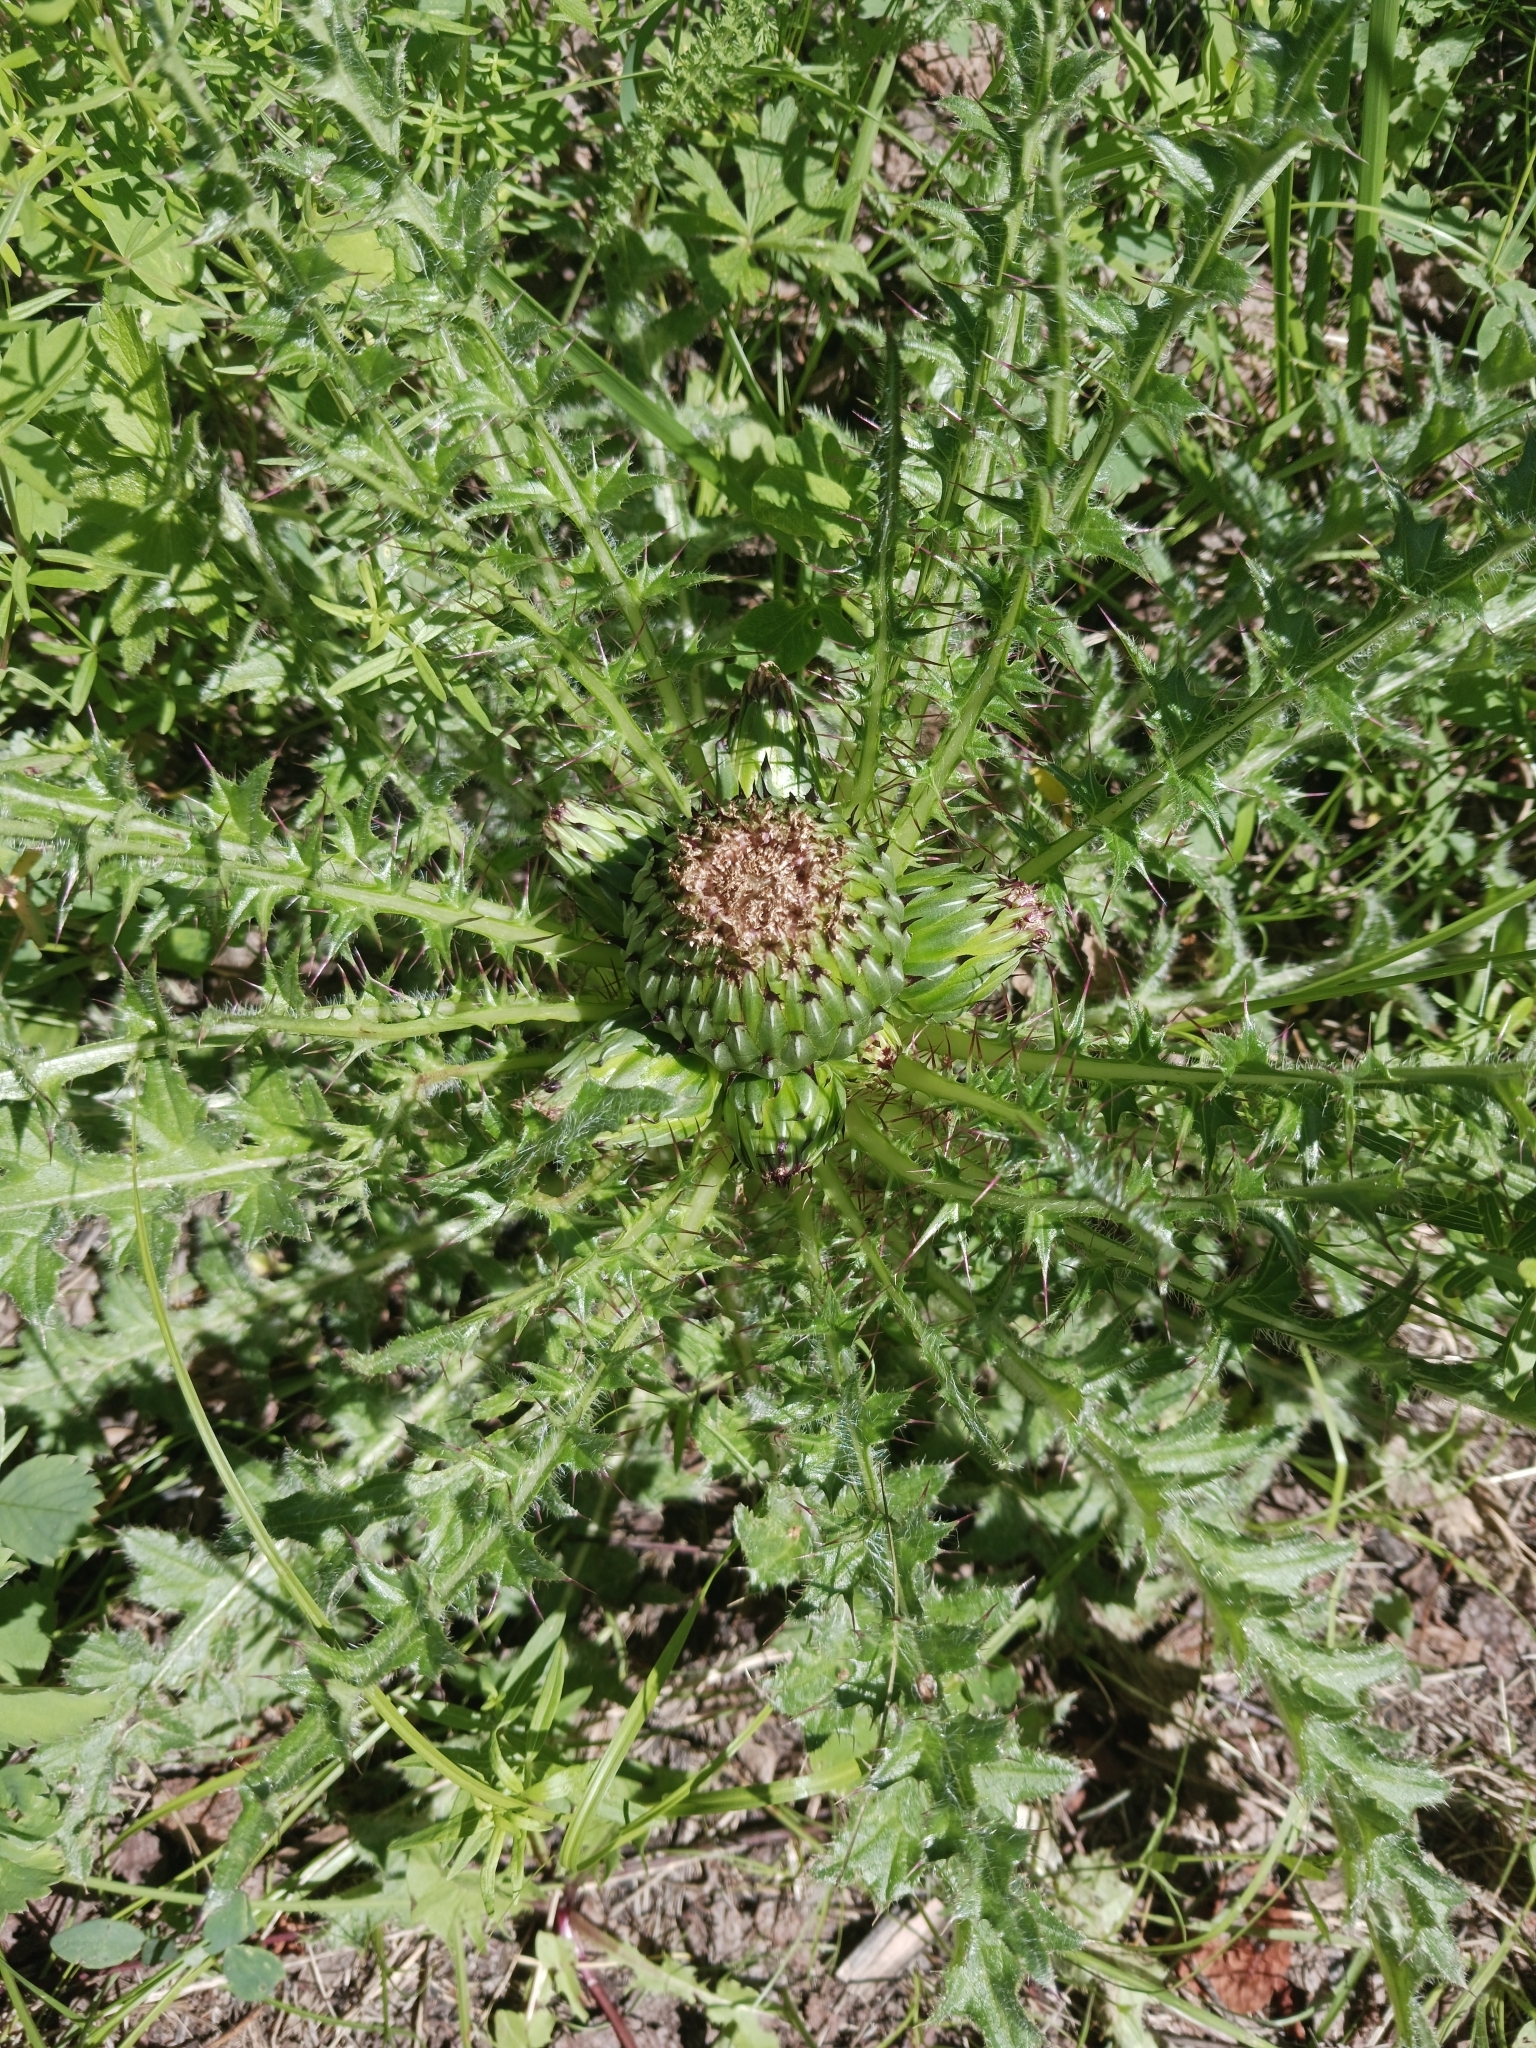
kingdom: Plantae
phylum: Tracheophyta
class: Magnoliopsida
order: Asterales
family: Asteraceae
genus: Cirsium
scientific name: Cirsium drummondii
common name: Drummond's thistle
